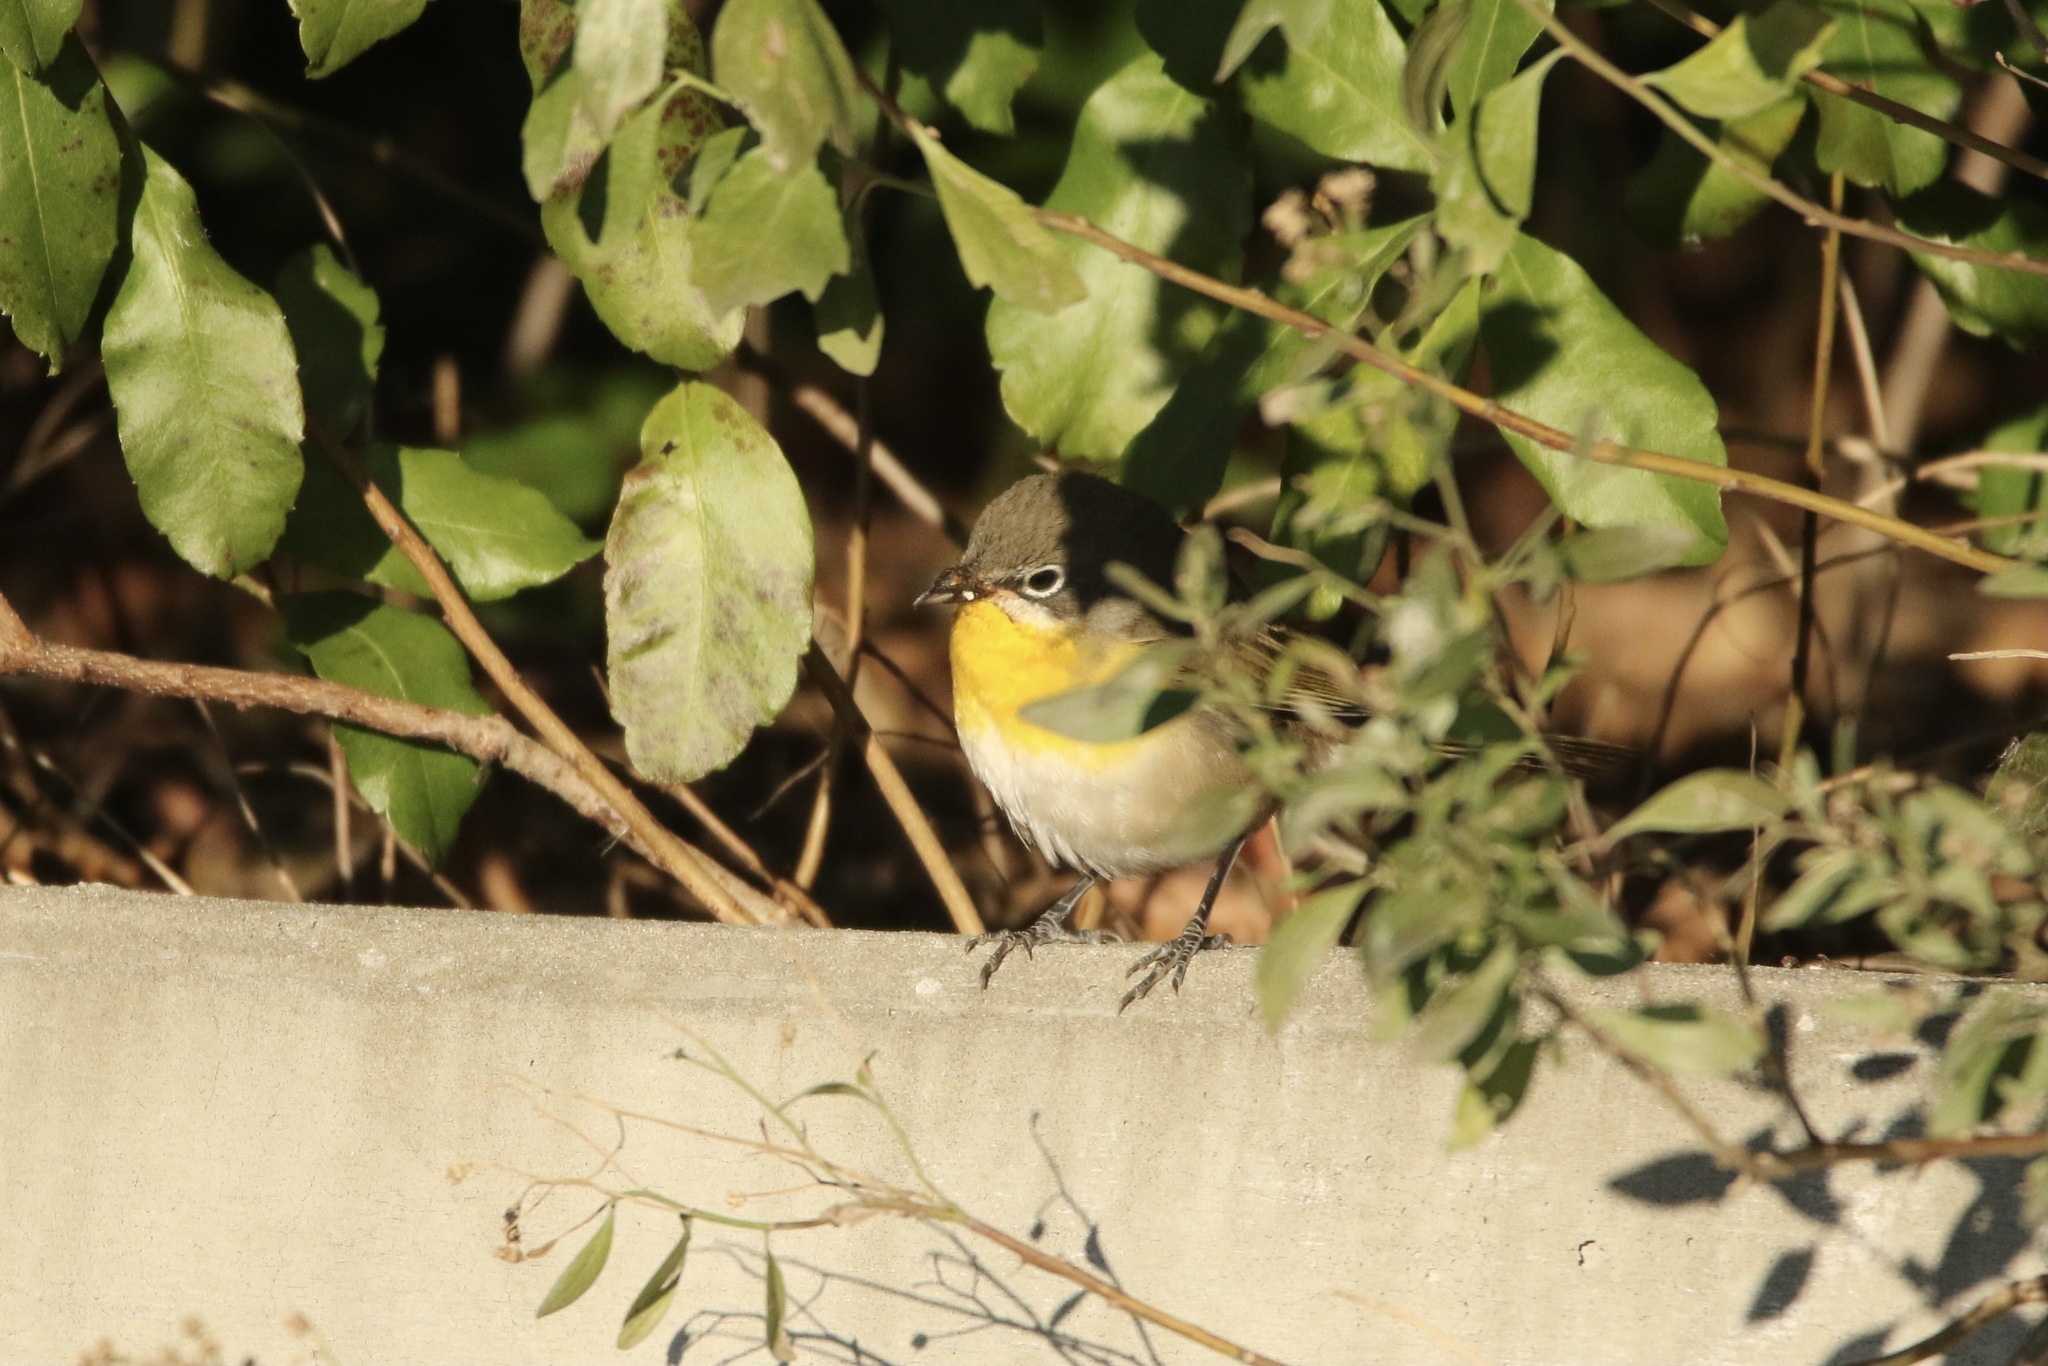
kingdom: Animalia
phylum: Chordata
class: Aves
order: Passeriformes
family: Parulidae
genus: Icteria
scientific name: Icteria virens
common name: Yellow-breasted chat
